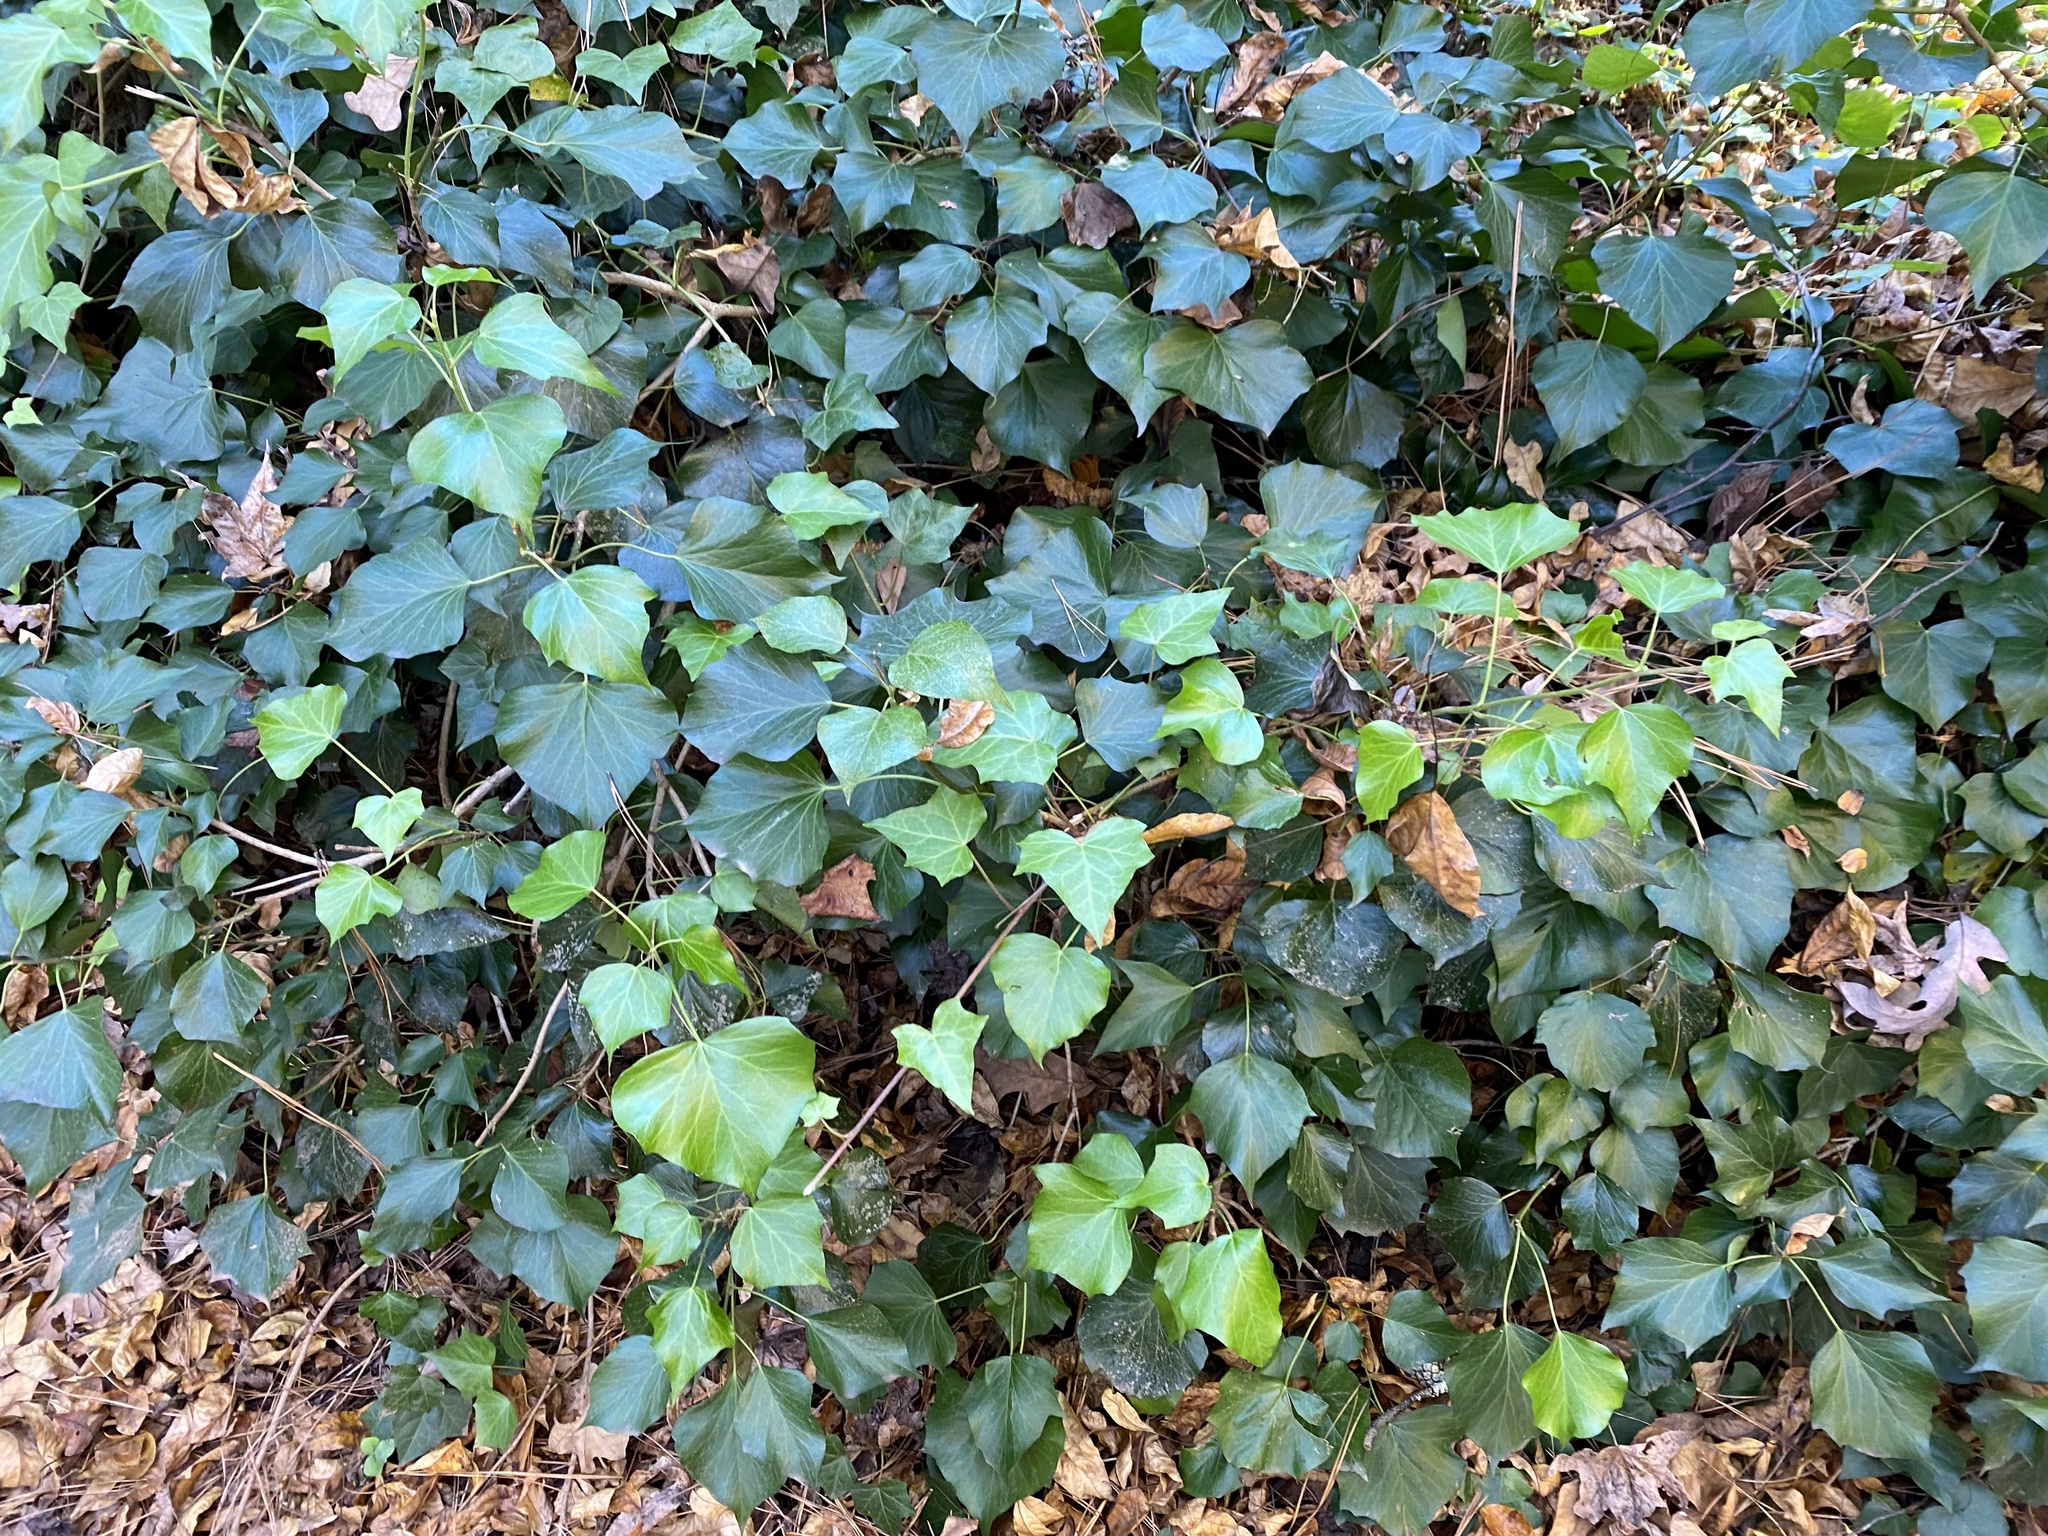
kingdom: Plantae
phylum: Tracheophyta
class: Magnoliopsida
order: Apiales
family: Araliaceae
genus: Hedera
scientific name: Hedera helix
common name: Ivy
